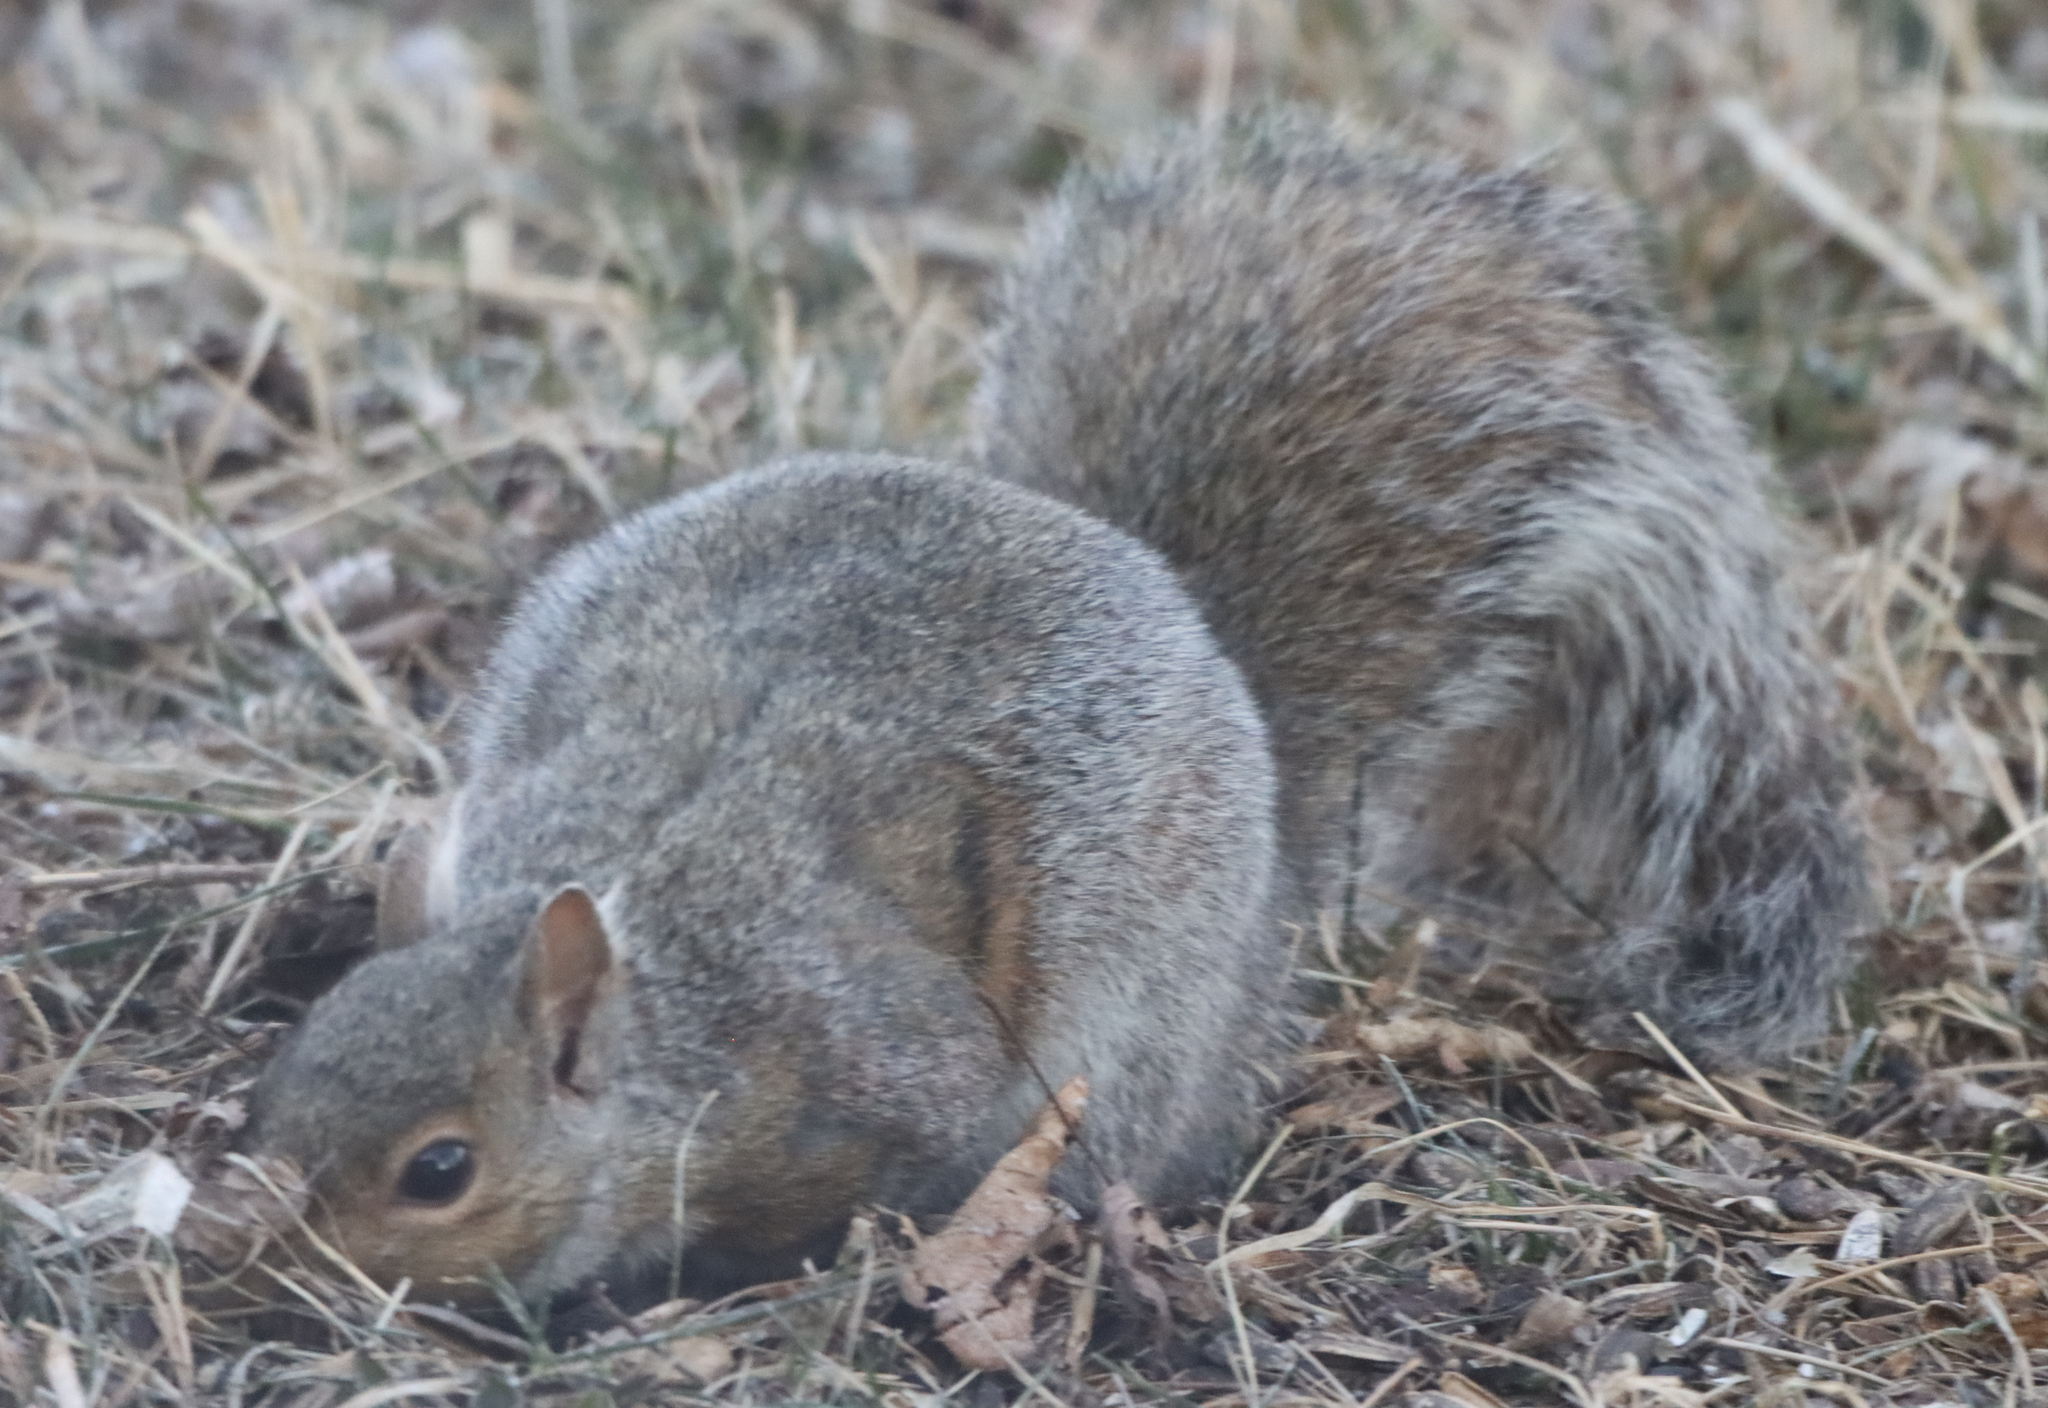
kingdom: Animalia
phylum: Chordata
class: Mammalia
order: Rodentia
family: Sciuridae
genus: Sciurus
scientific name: Sciurus carolinensis
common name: Eastern gray squirrel
